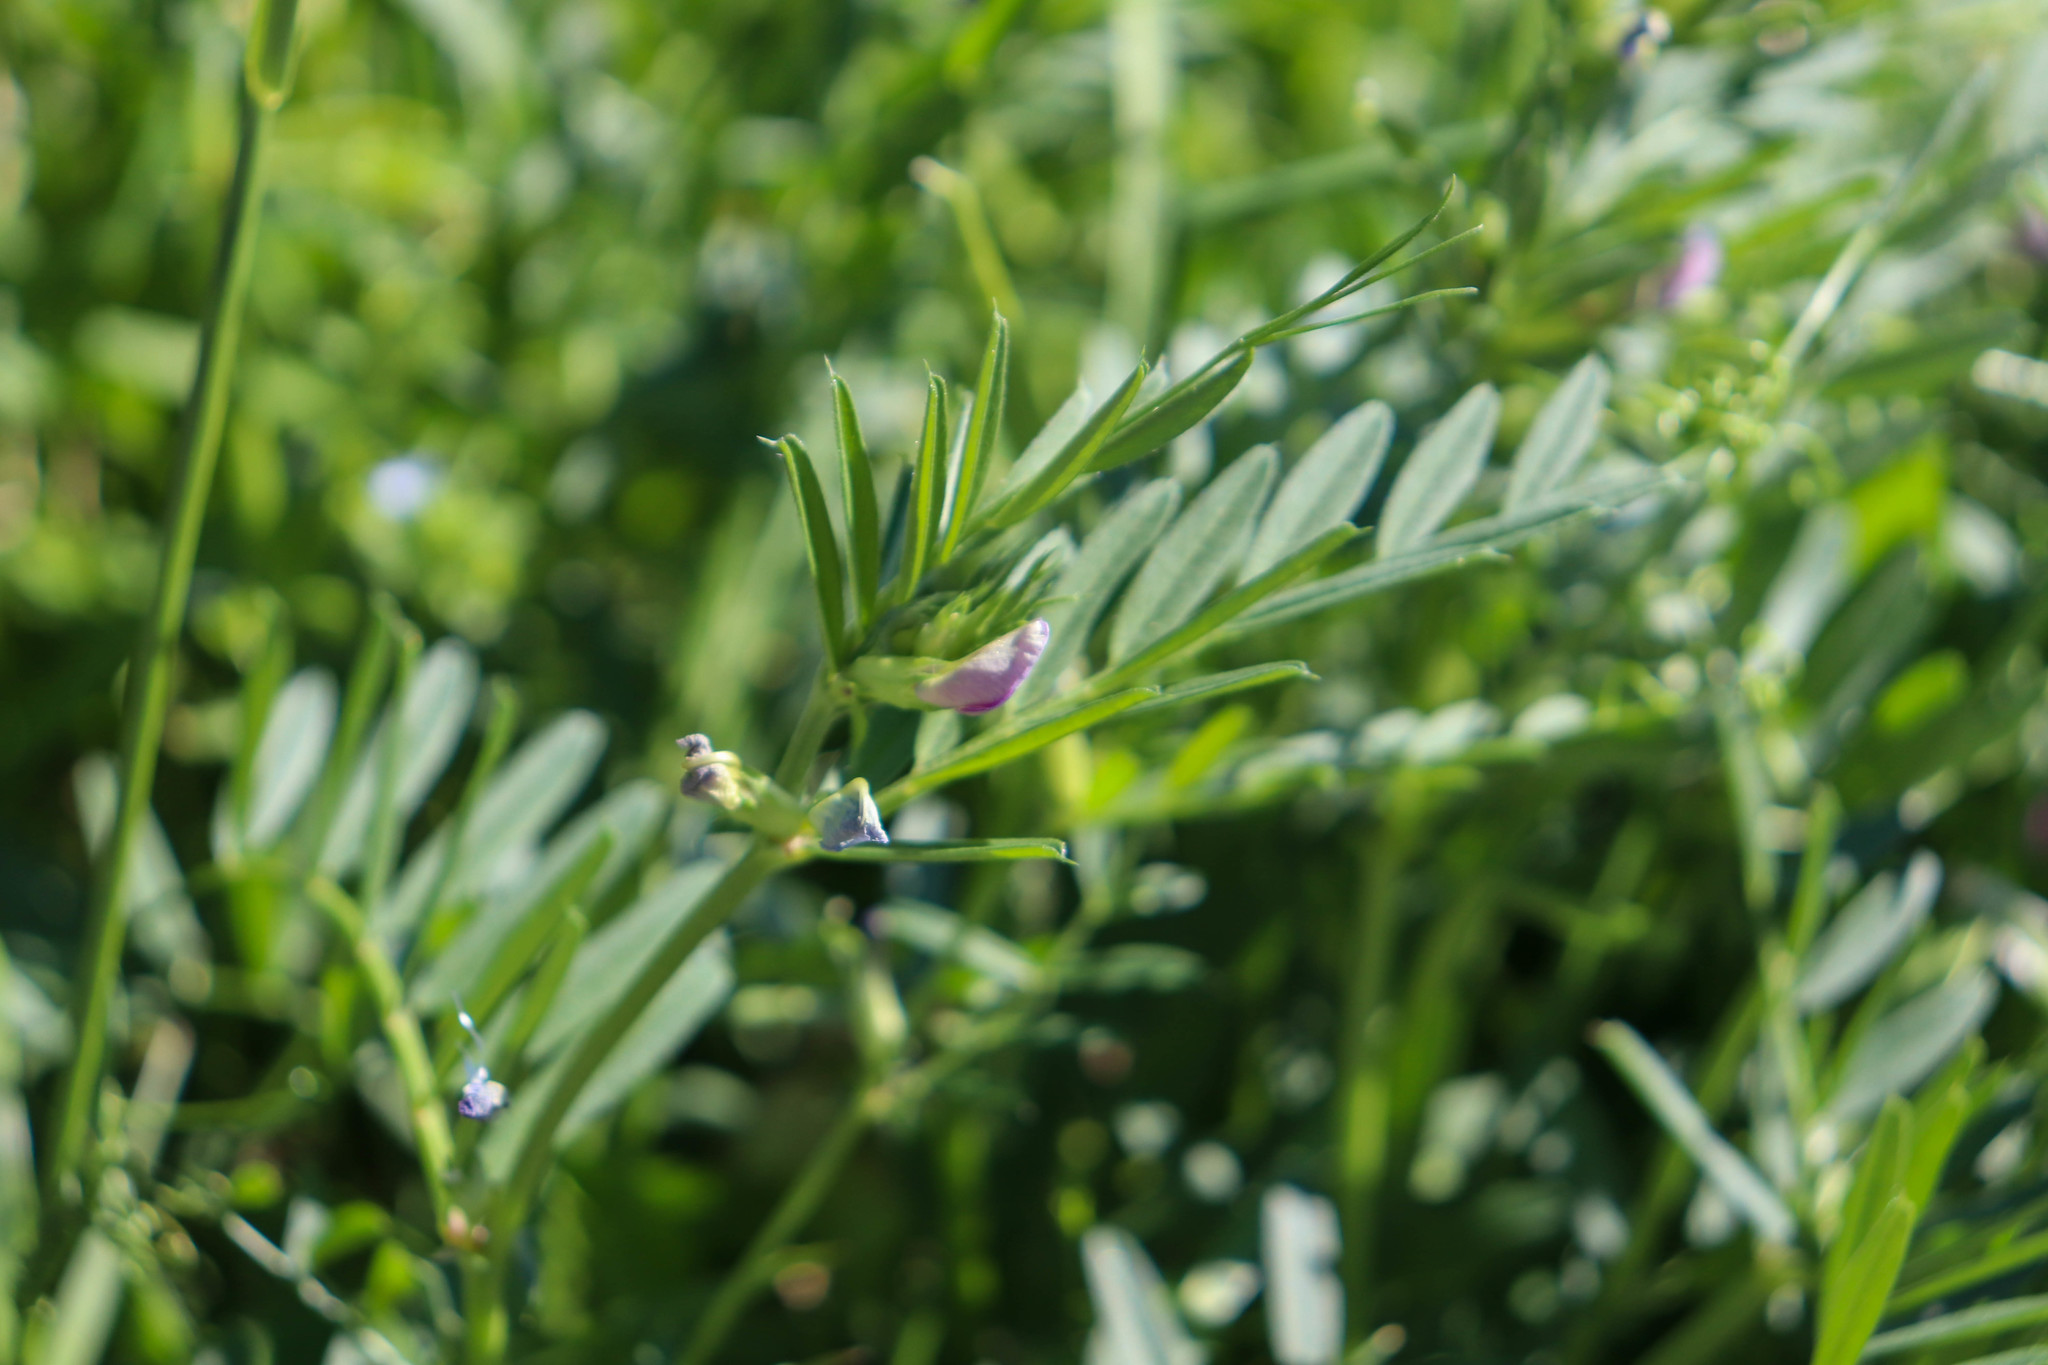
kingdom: Plantae
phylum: Tracheophyta
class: Magnoliopsida
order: Fabales
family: Fabaceae
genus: Vicia
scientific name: Vicia sativa
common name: Garden vetch
